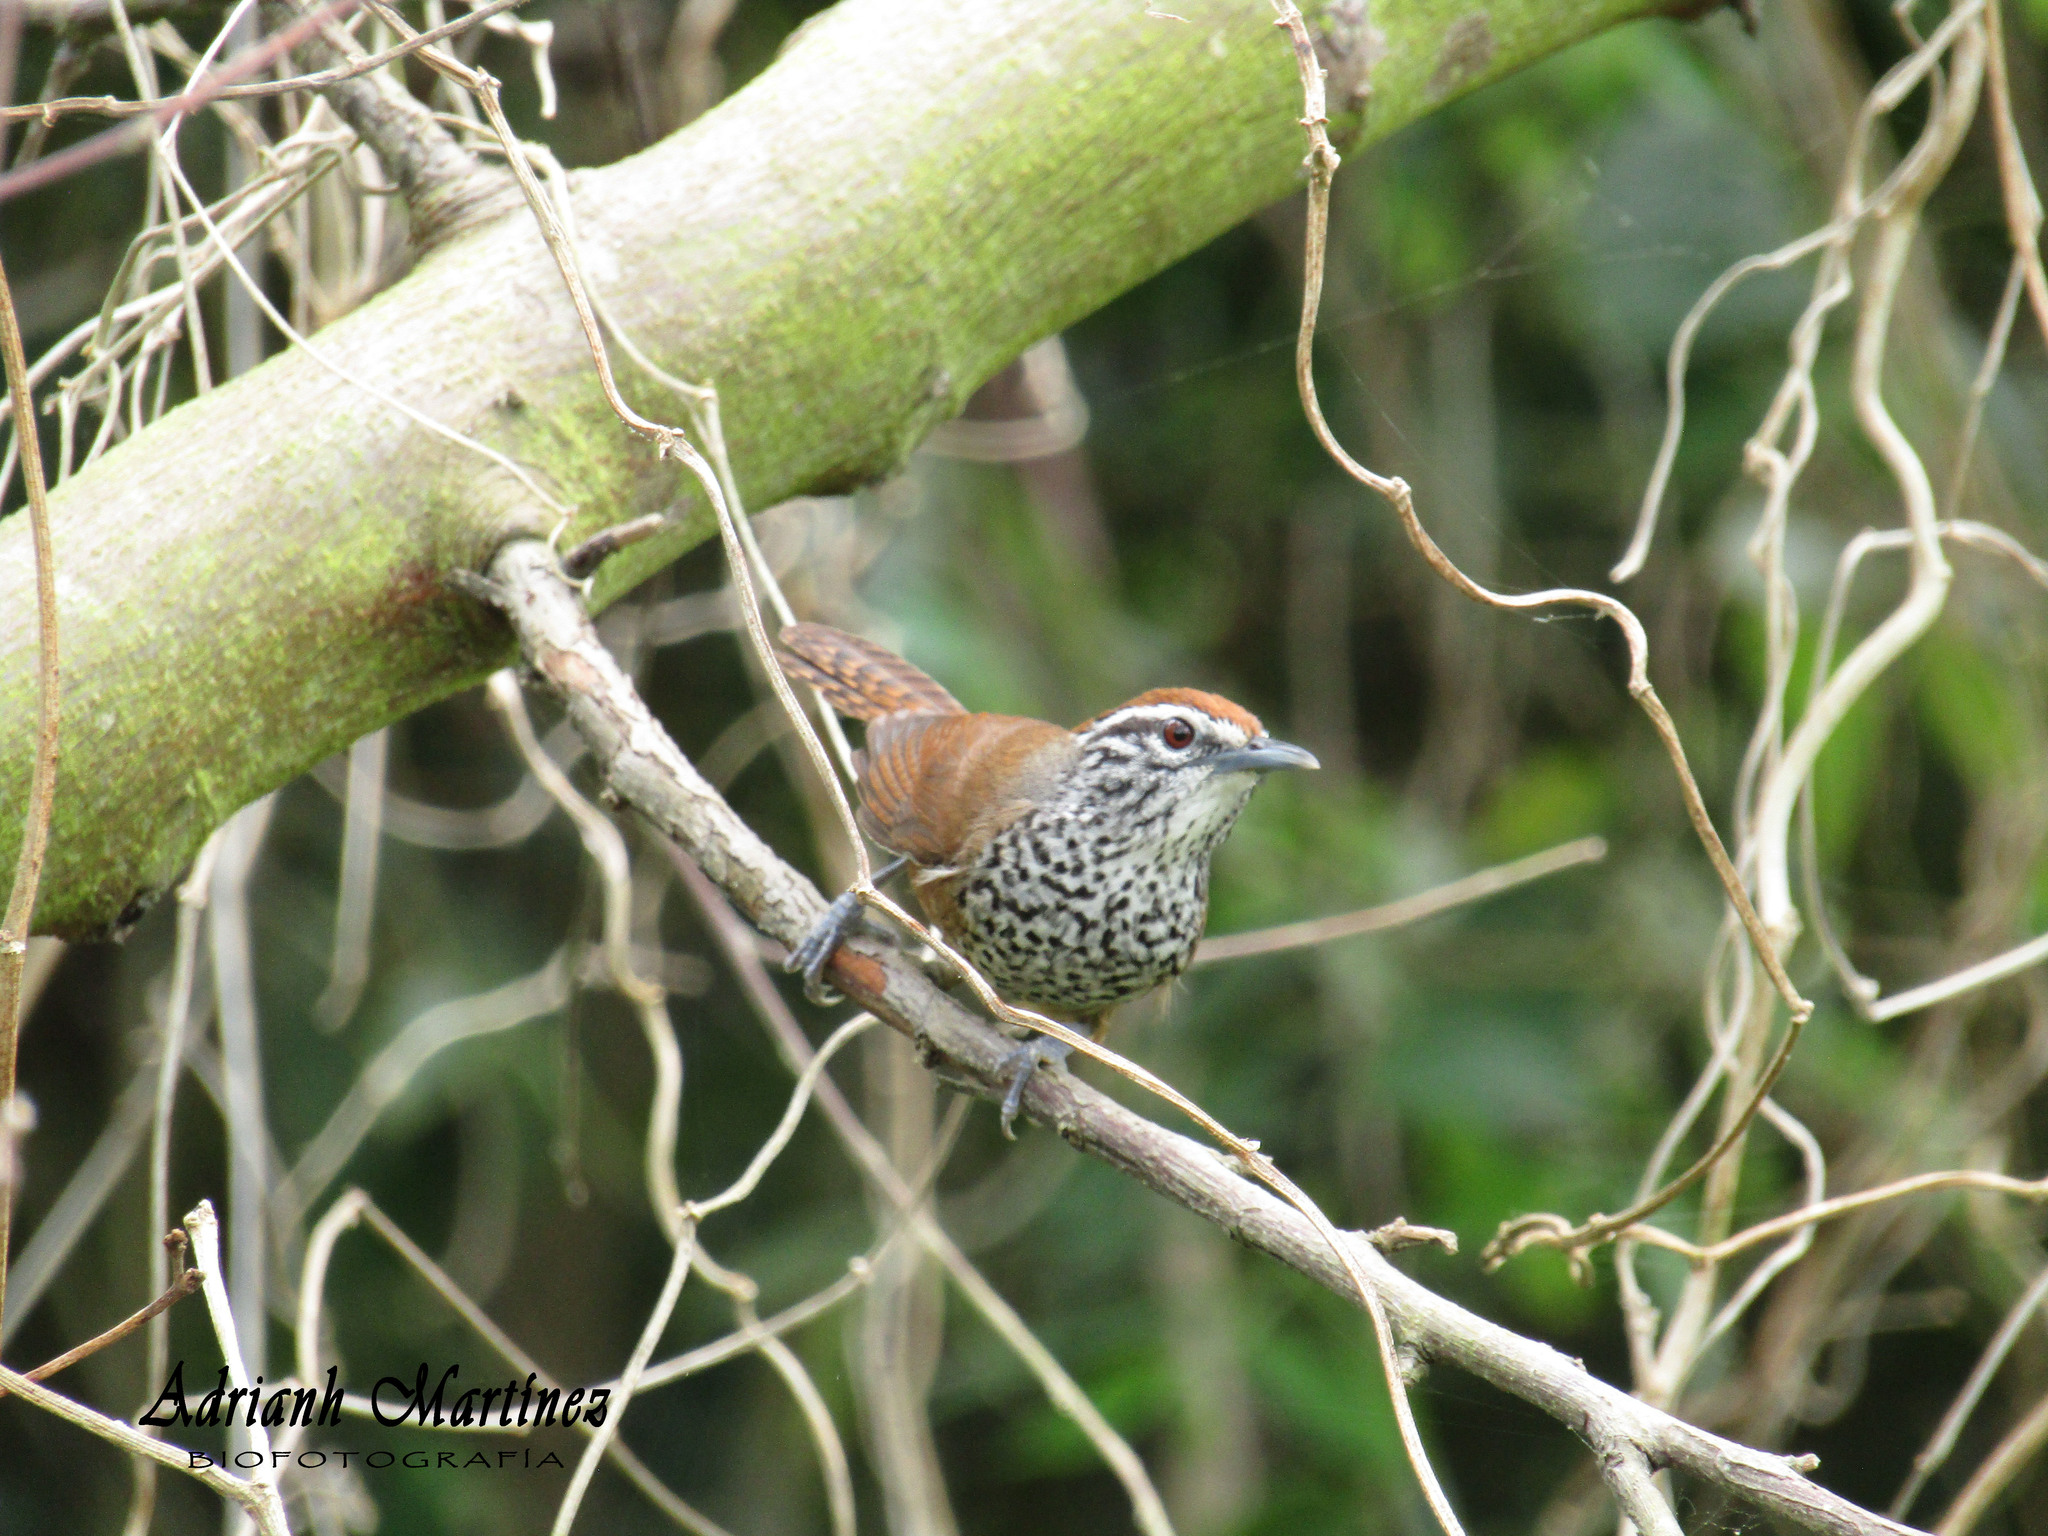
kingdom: Animalia
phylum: Chordata
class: Aves
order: Passeriformes
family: Troglodytidae
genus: Pheugopedius
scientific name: Pheugopedius maculipectus
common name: Spot-breasted wren
